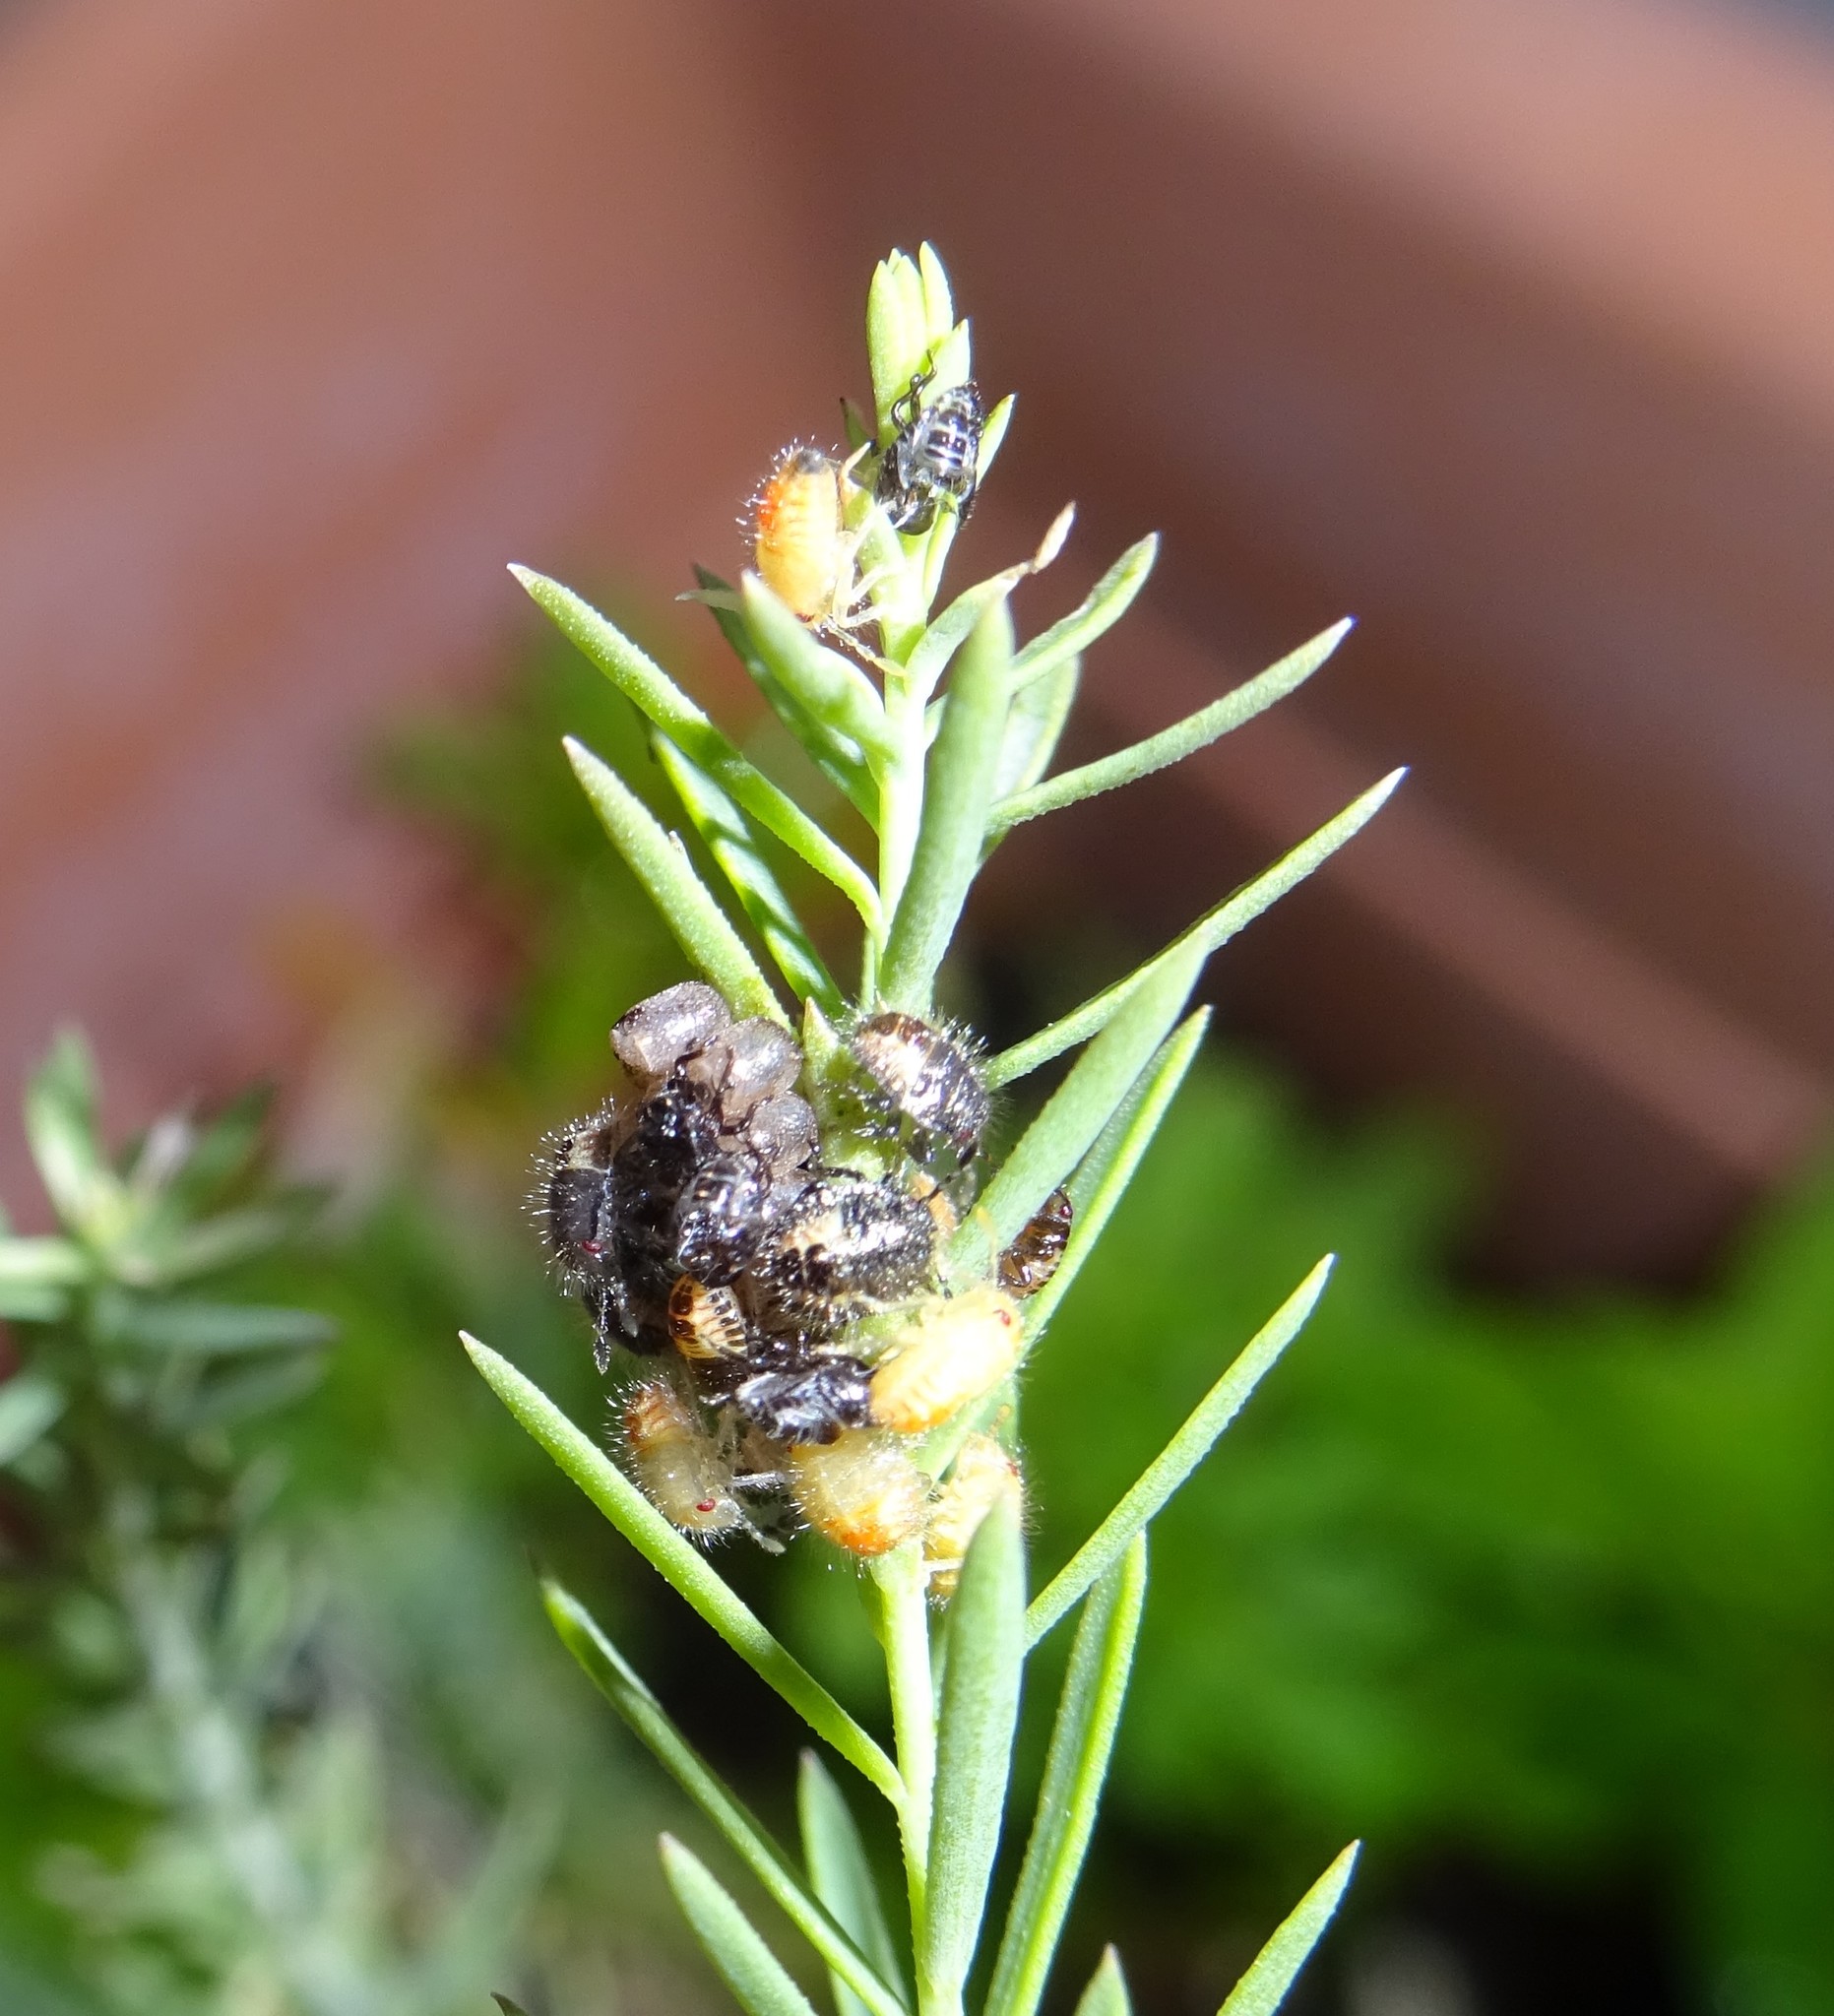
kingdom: Animalia
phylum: Arthropoda
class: Insecta
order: Hemiptera
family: Pentatomidae
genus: Dolycoris
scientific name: Dolycoris baccarum
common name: Sloe bug
